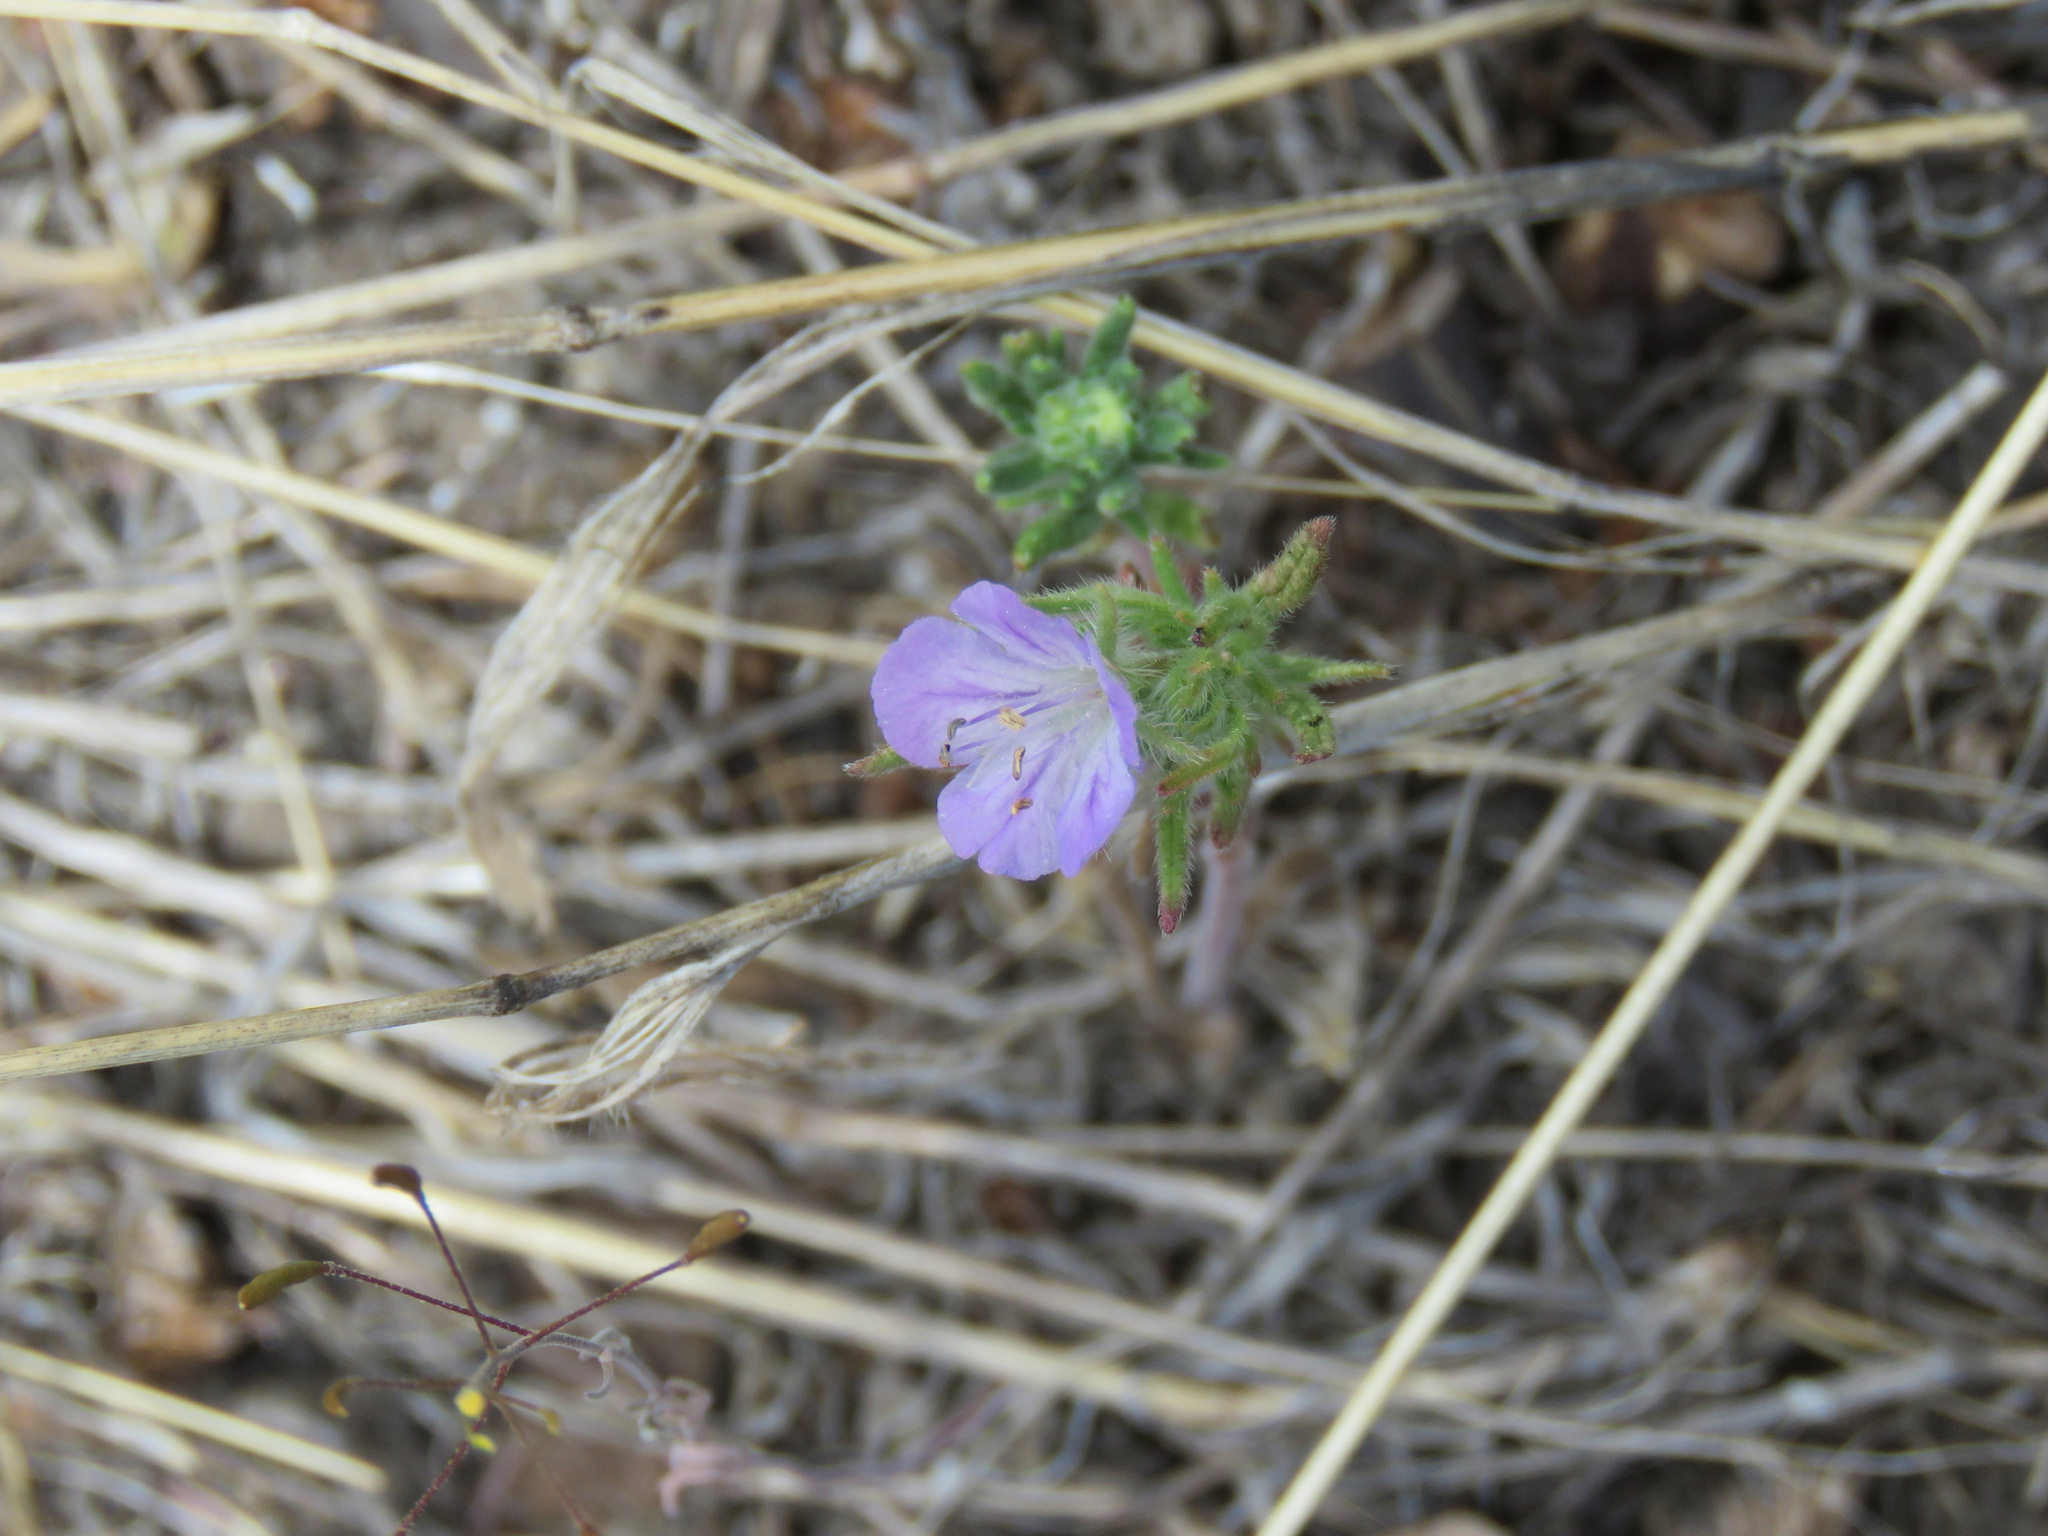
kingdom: Plantae
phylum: Tracheophyta
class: Magnoliopsida
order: Boraginales
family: Hydrophyllaceae
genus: Phacelia
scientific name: Phacelia linearis
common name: Linear-leaved phacelia
